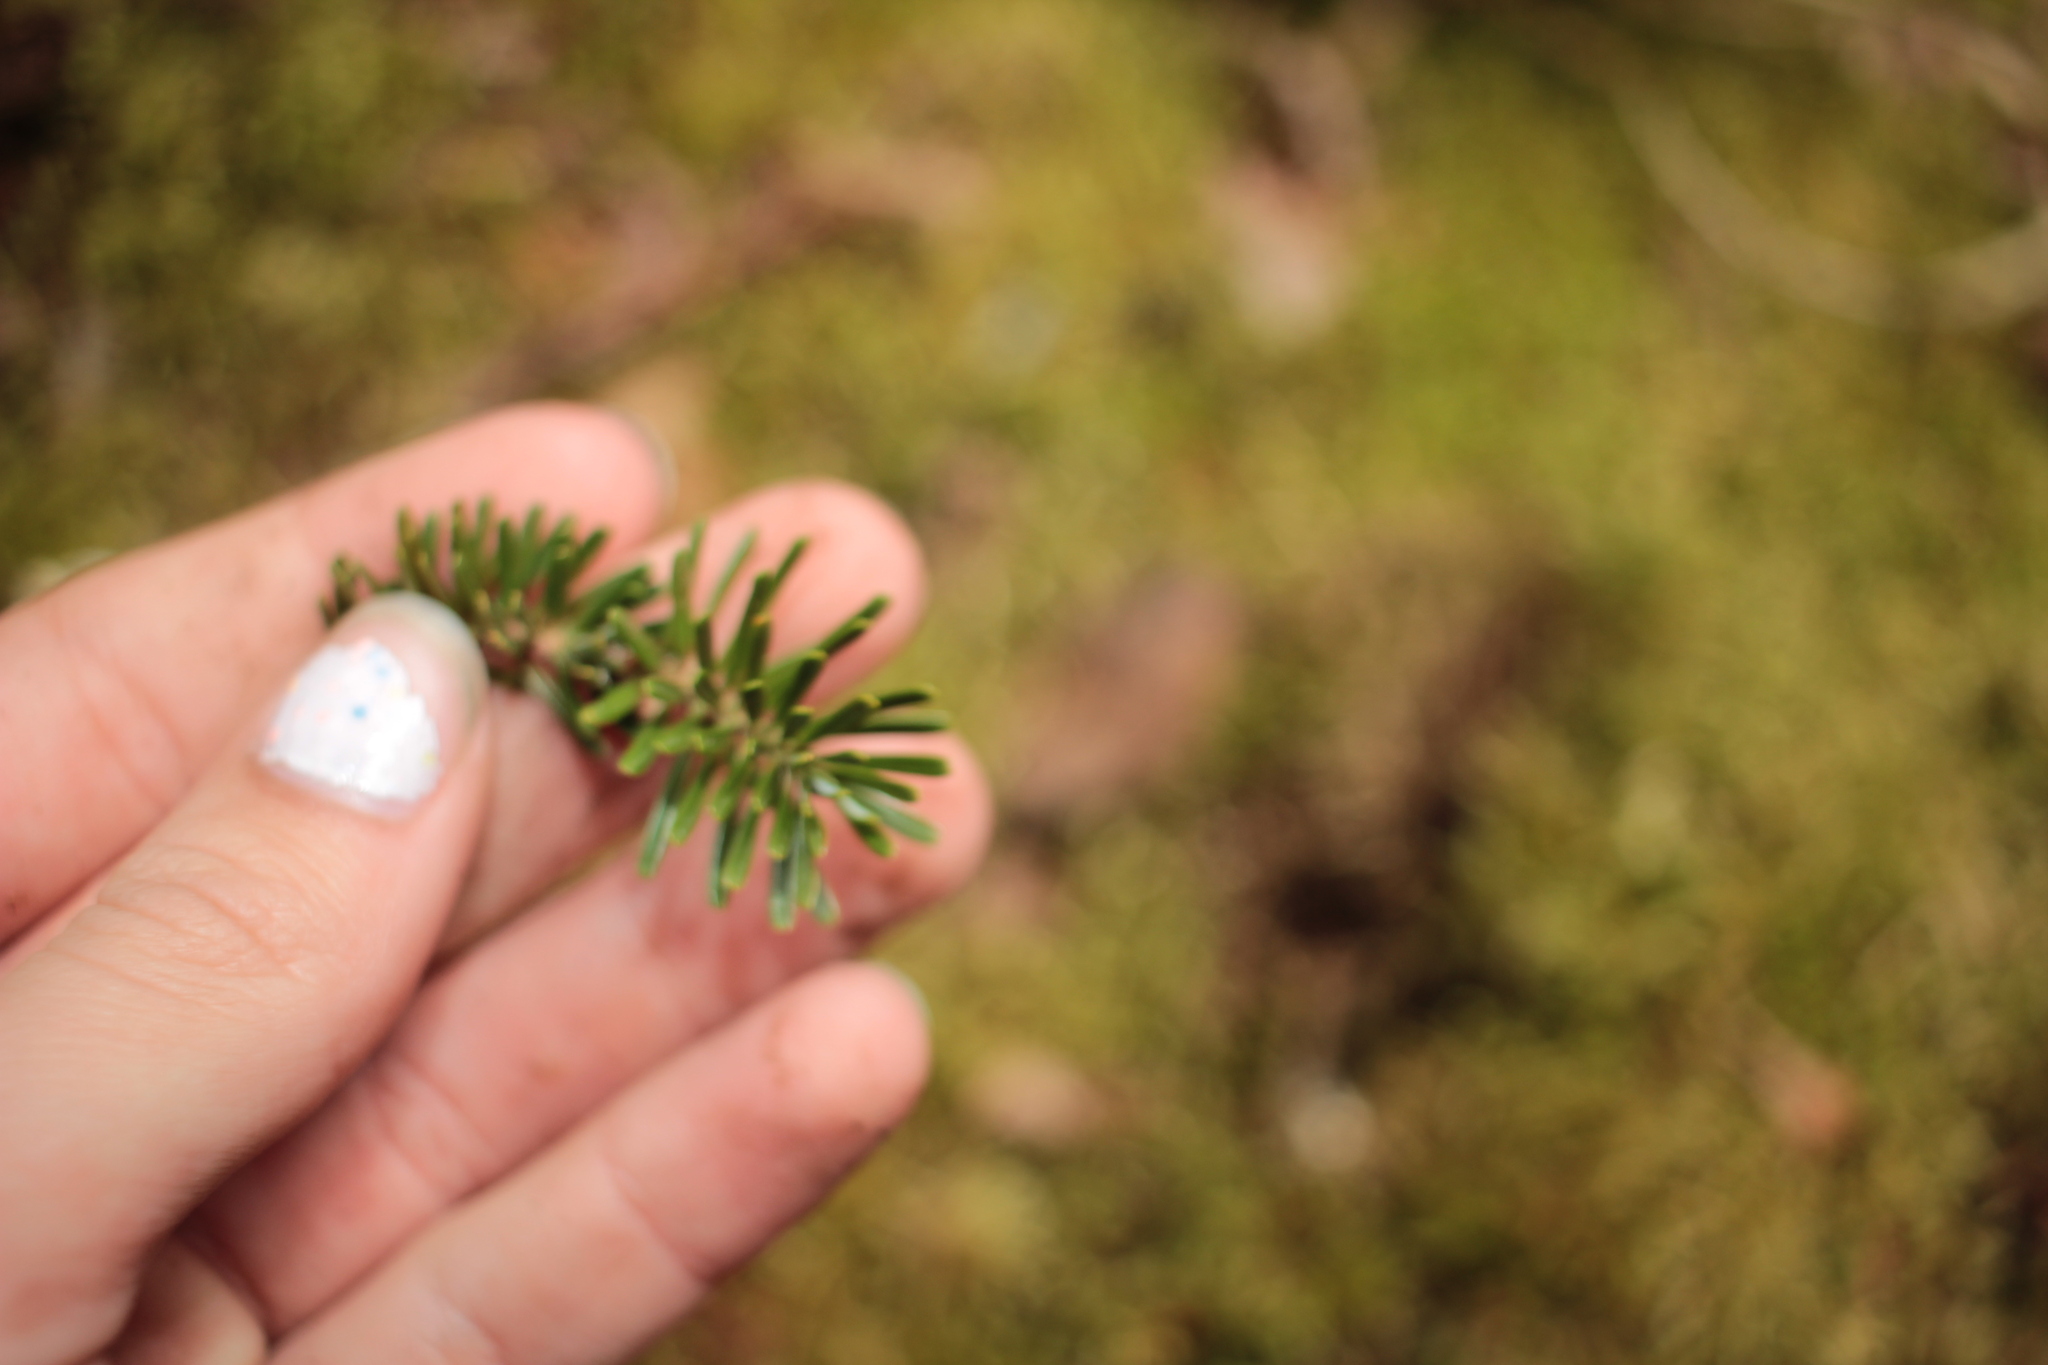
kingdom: Plantae
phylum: Tracheophyta
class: Pinopsida
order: Pinales
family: Pinaceae
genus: Abies
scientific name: Abies fraseri
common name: Fraser fir
